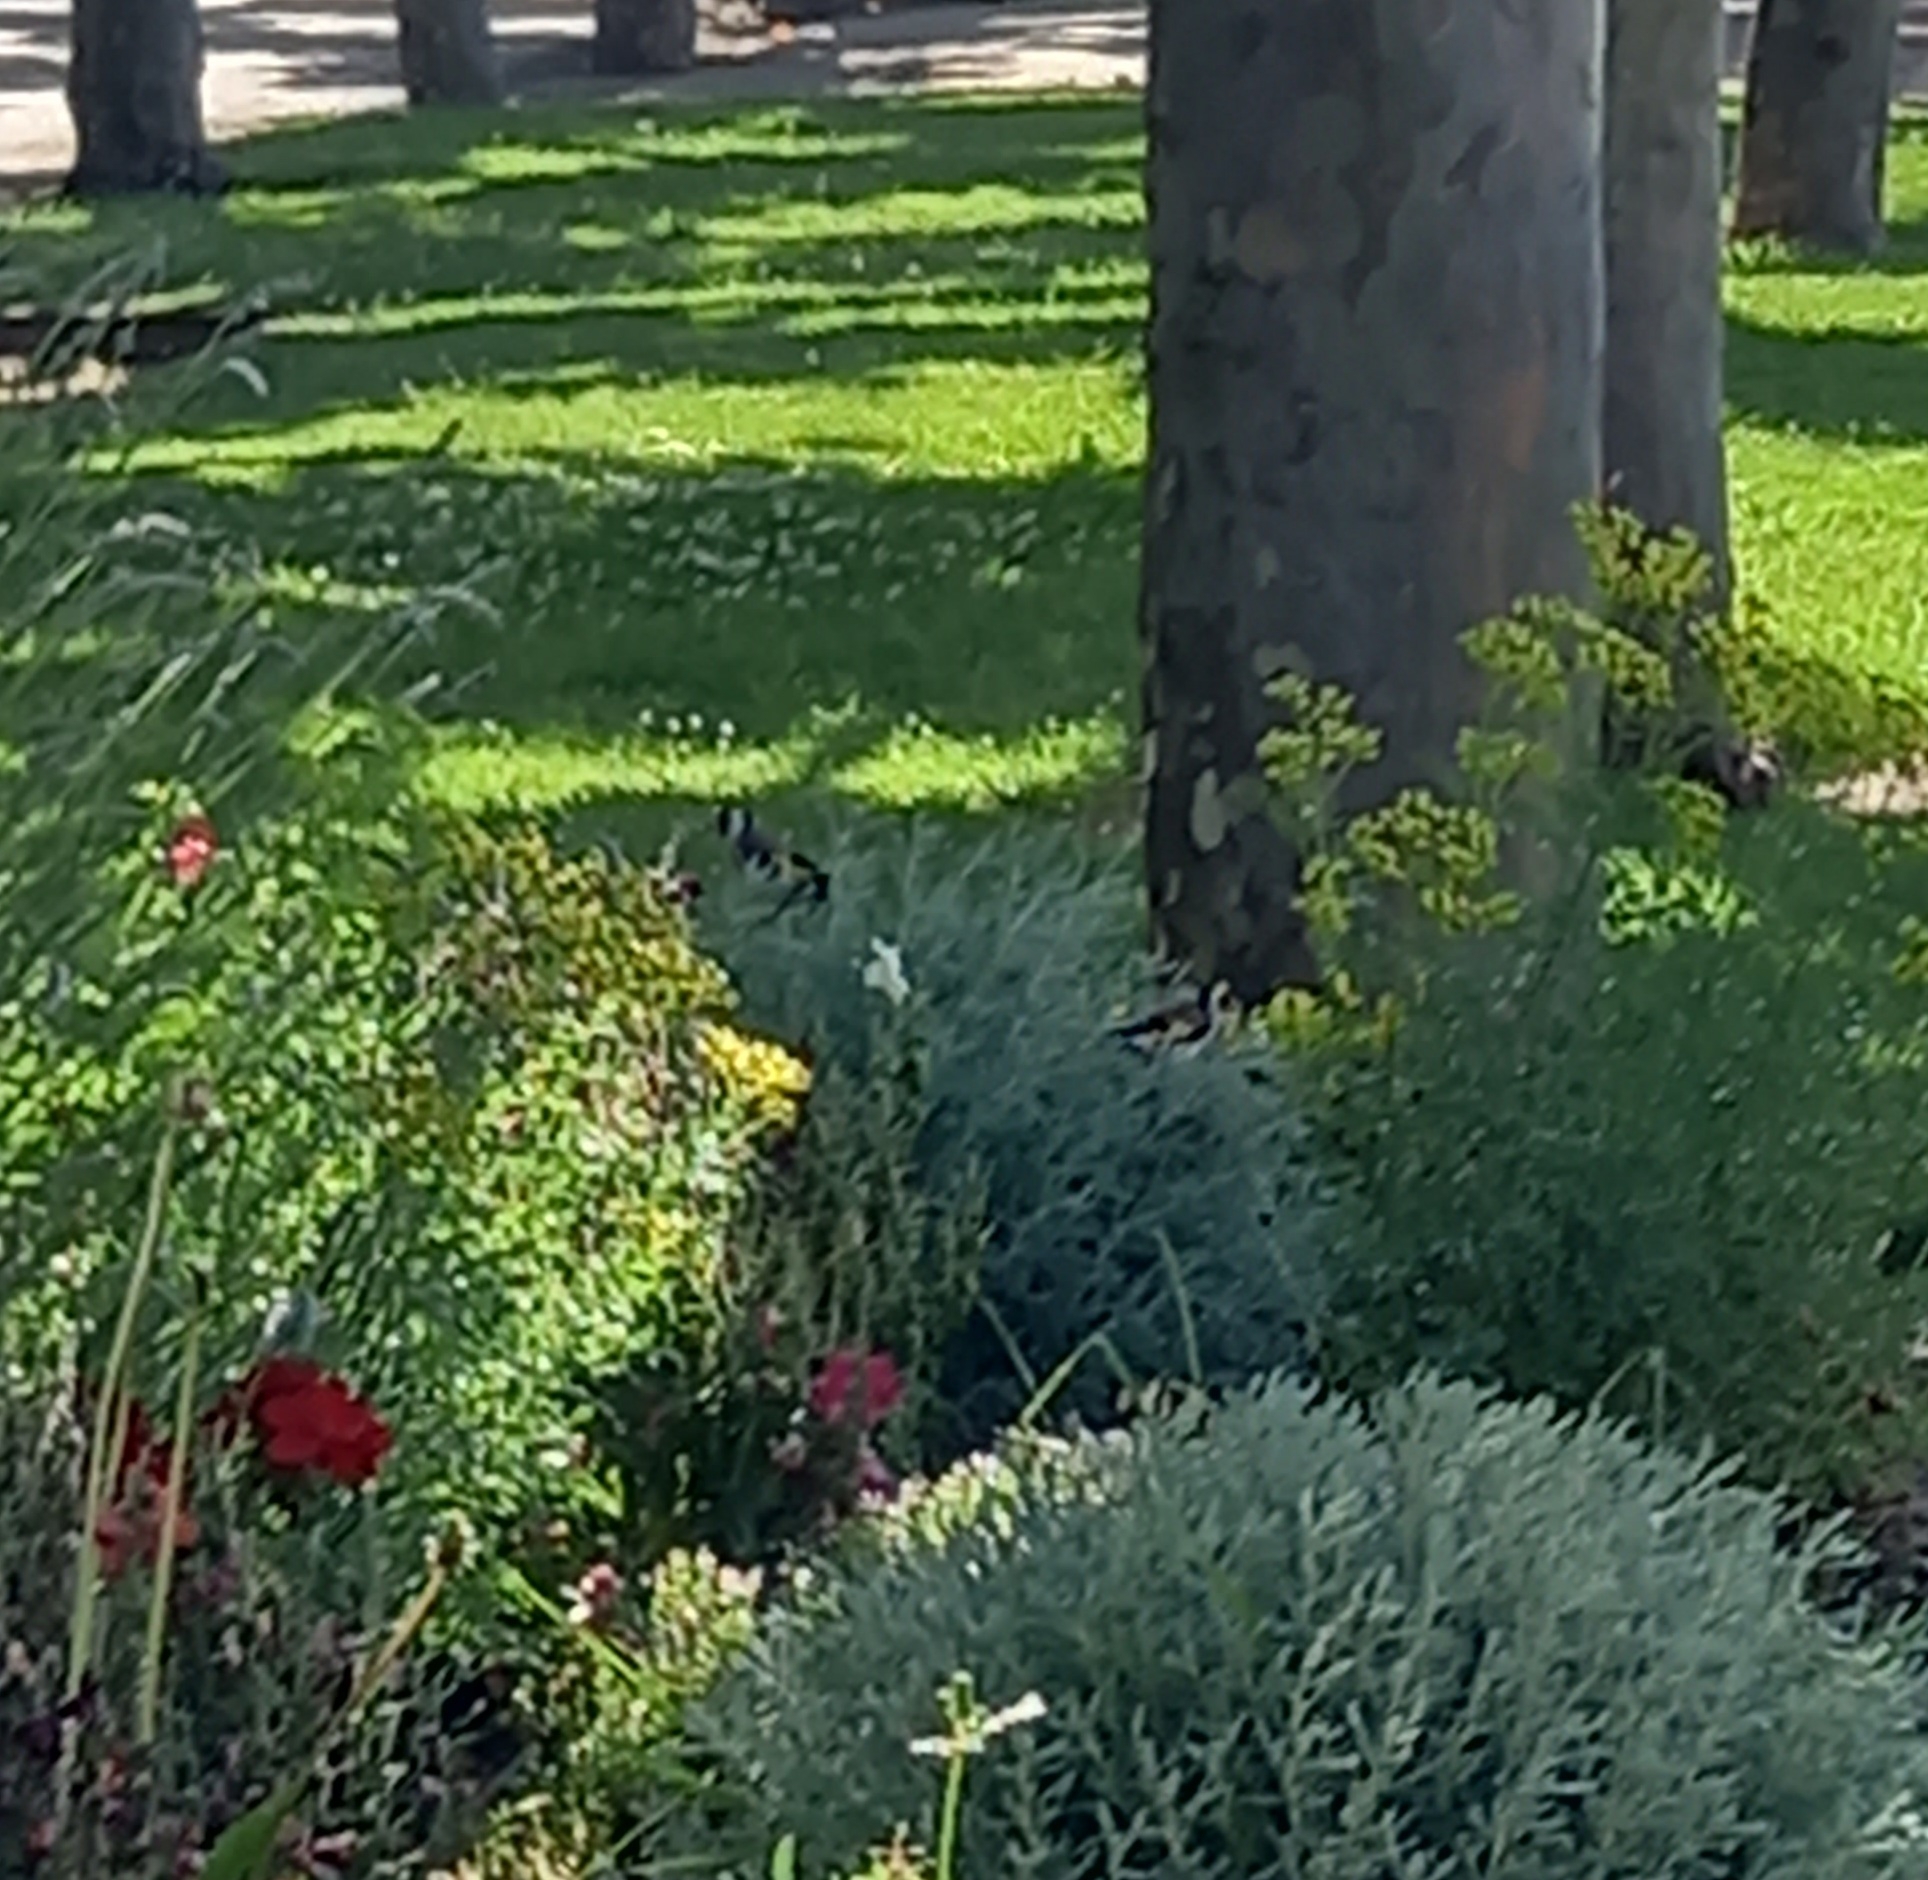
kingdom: Animalia
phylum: Chordata
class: Aves
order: Passeriformes
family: Fringillidae
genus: Carduelis
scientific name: Carduelis carduelis
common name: European goldfinch
